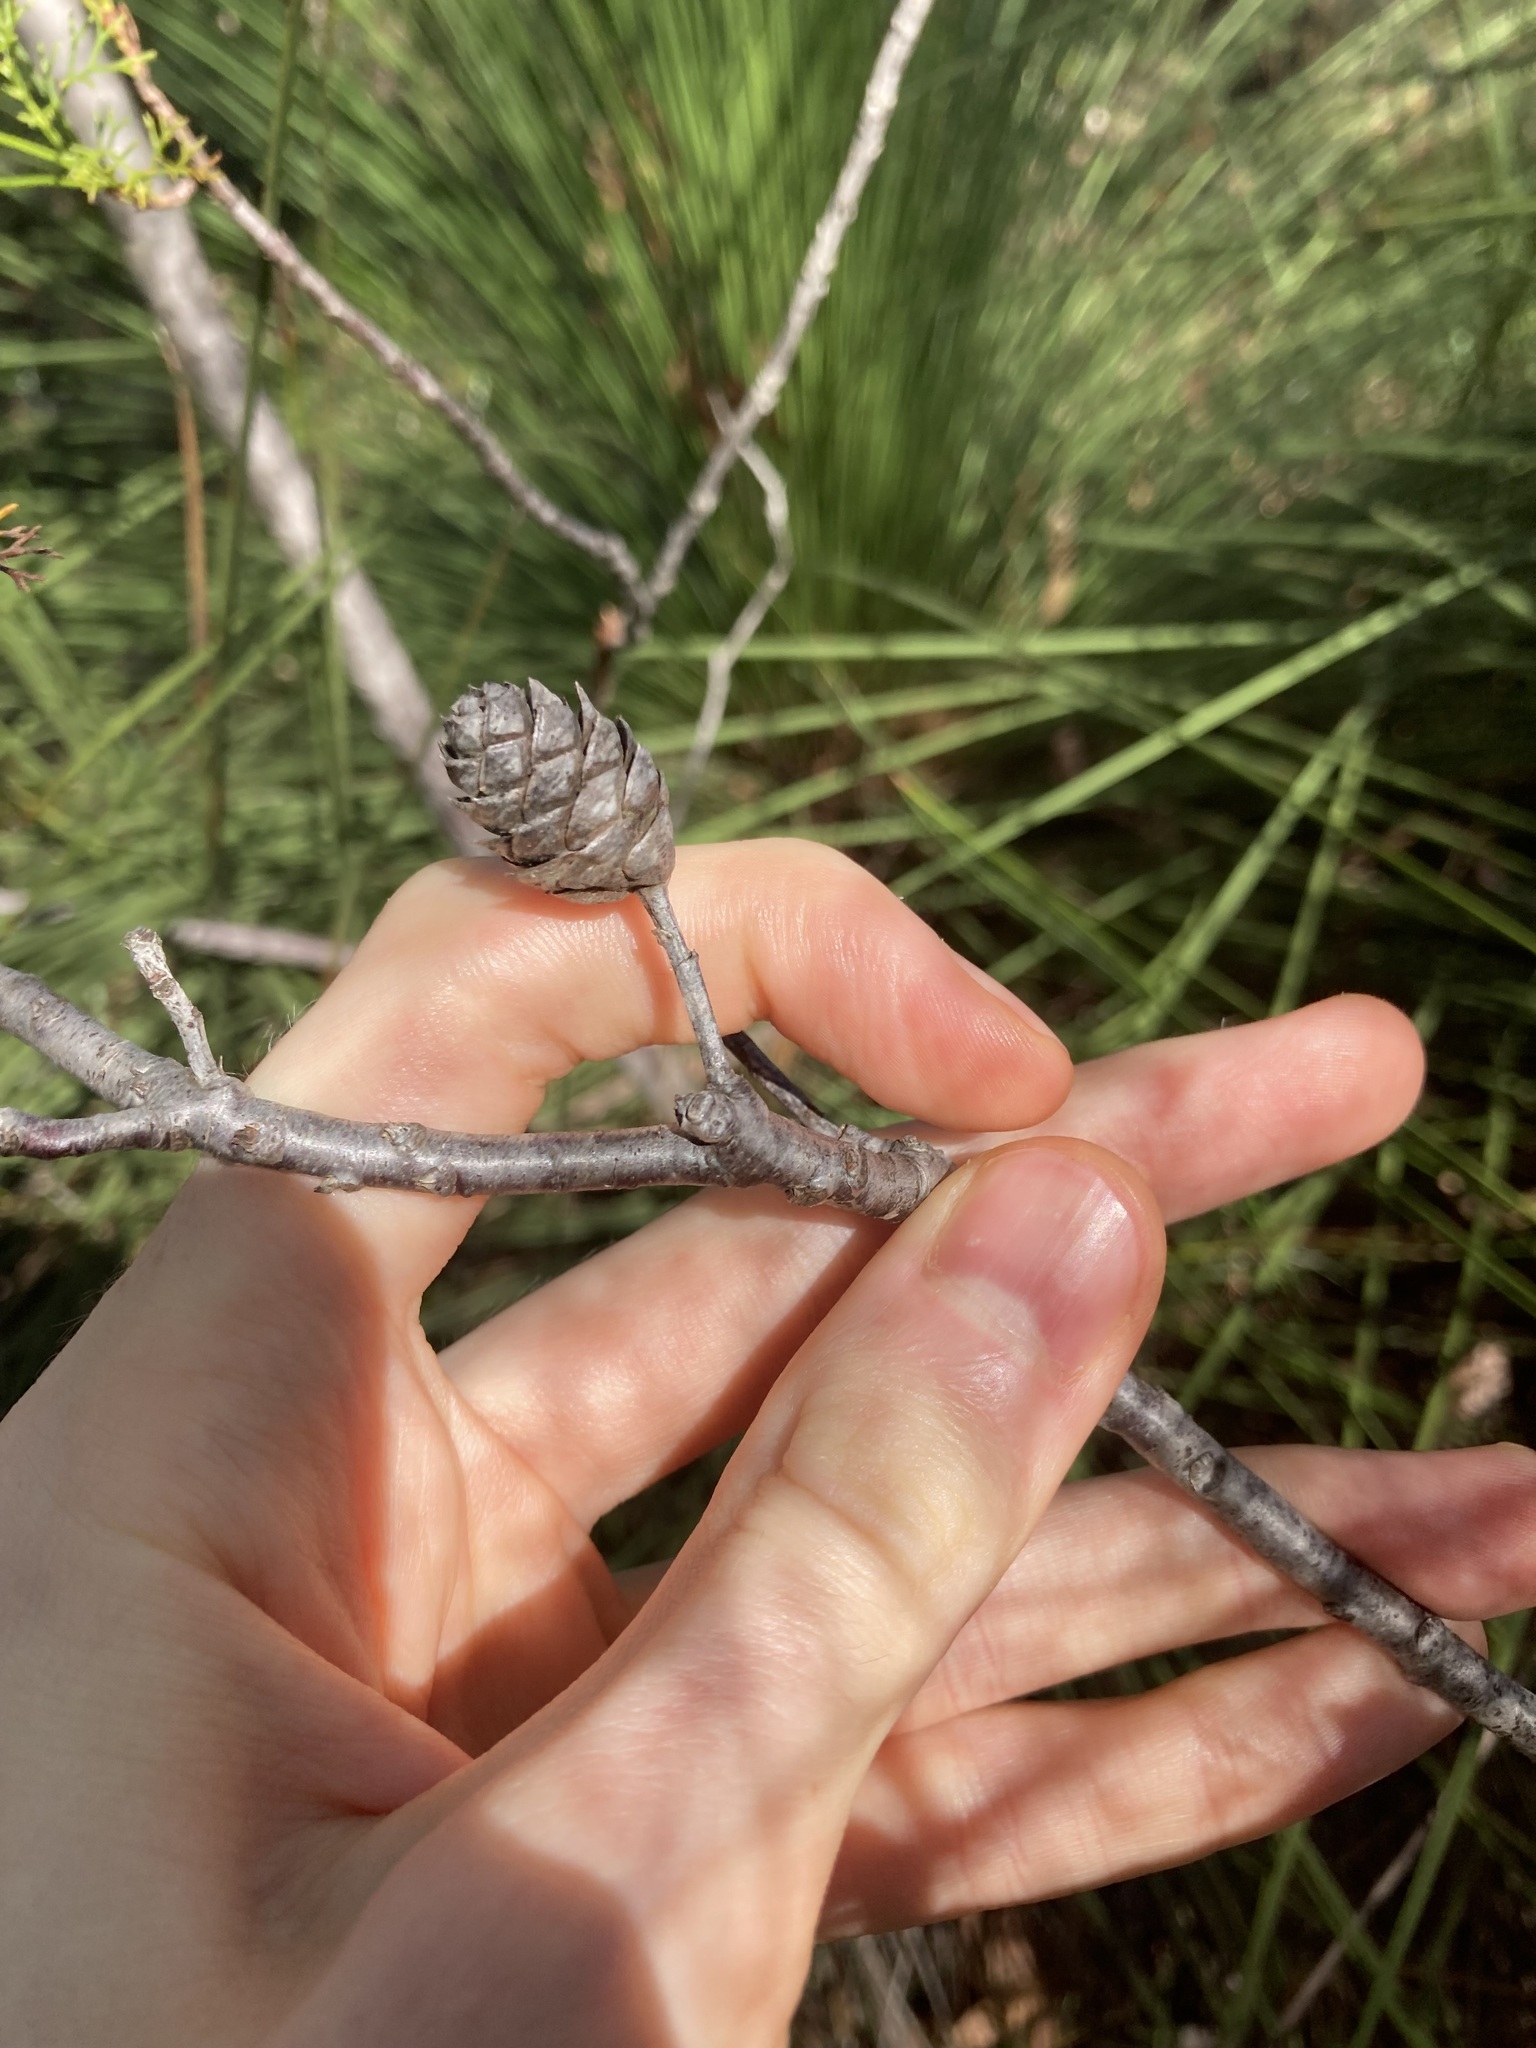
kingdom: Plantae
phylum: Tracheophyta
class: Magnoliopsida
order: Proteales
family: Proteaceae
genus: Petrophile
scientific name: Petrophile pedunculata
